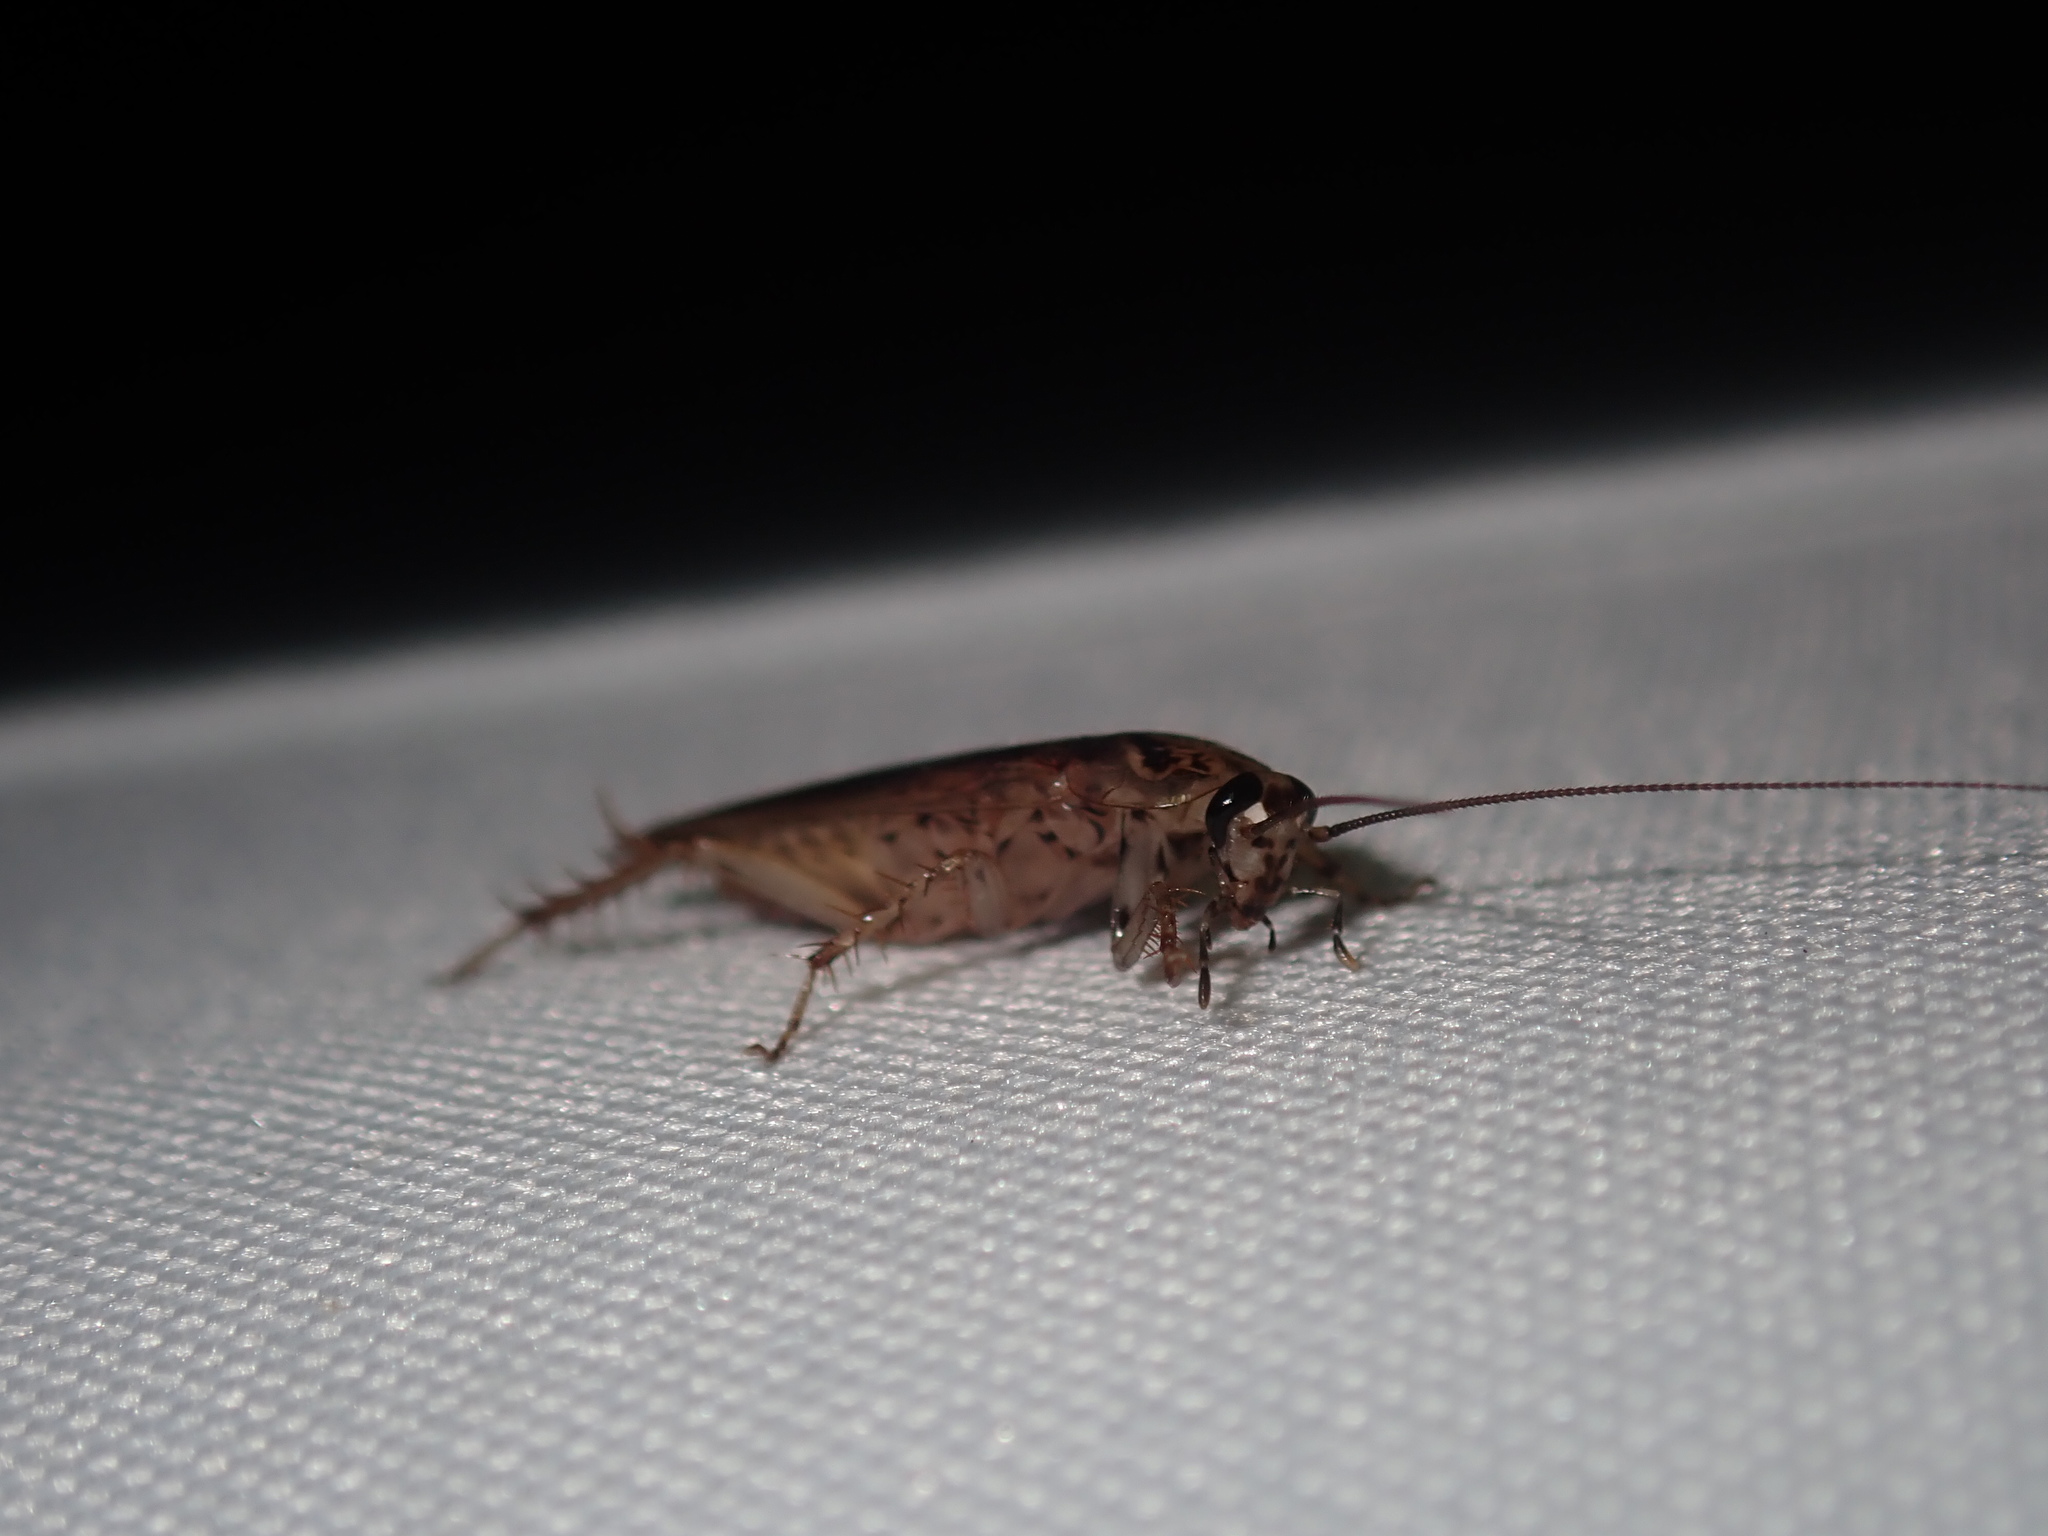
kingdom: Animalia
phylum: Arthropoda
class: Insecta
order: Blattodea
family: Ectobiidae
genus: Johnrehnia
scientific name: Johnrehnia contraria
